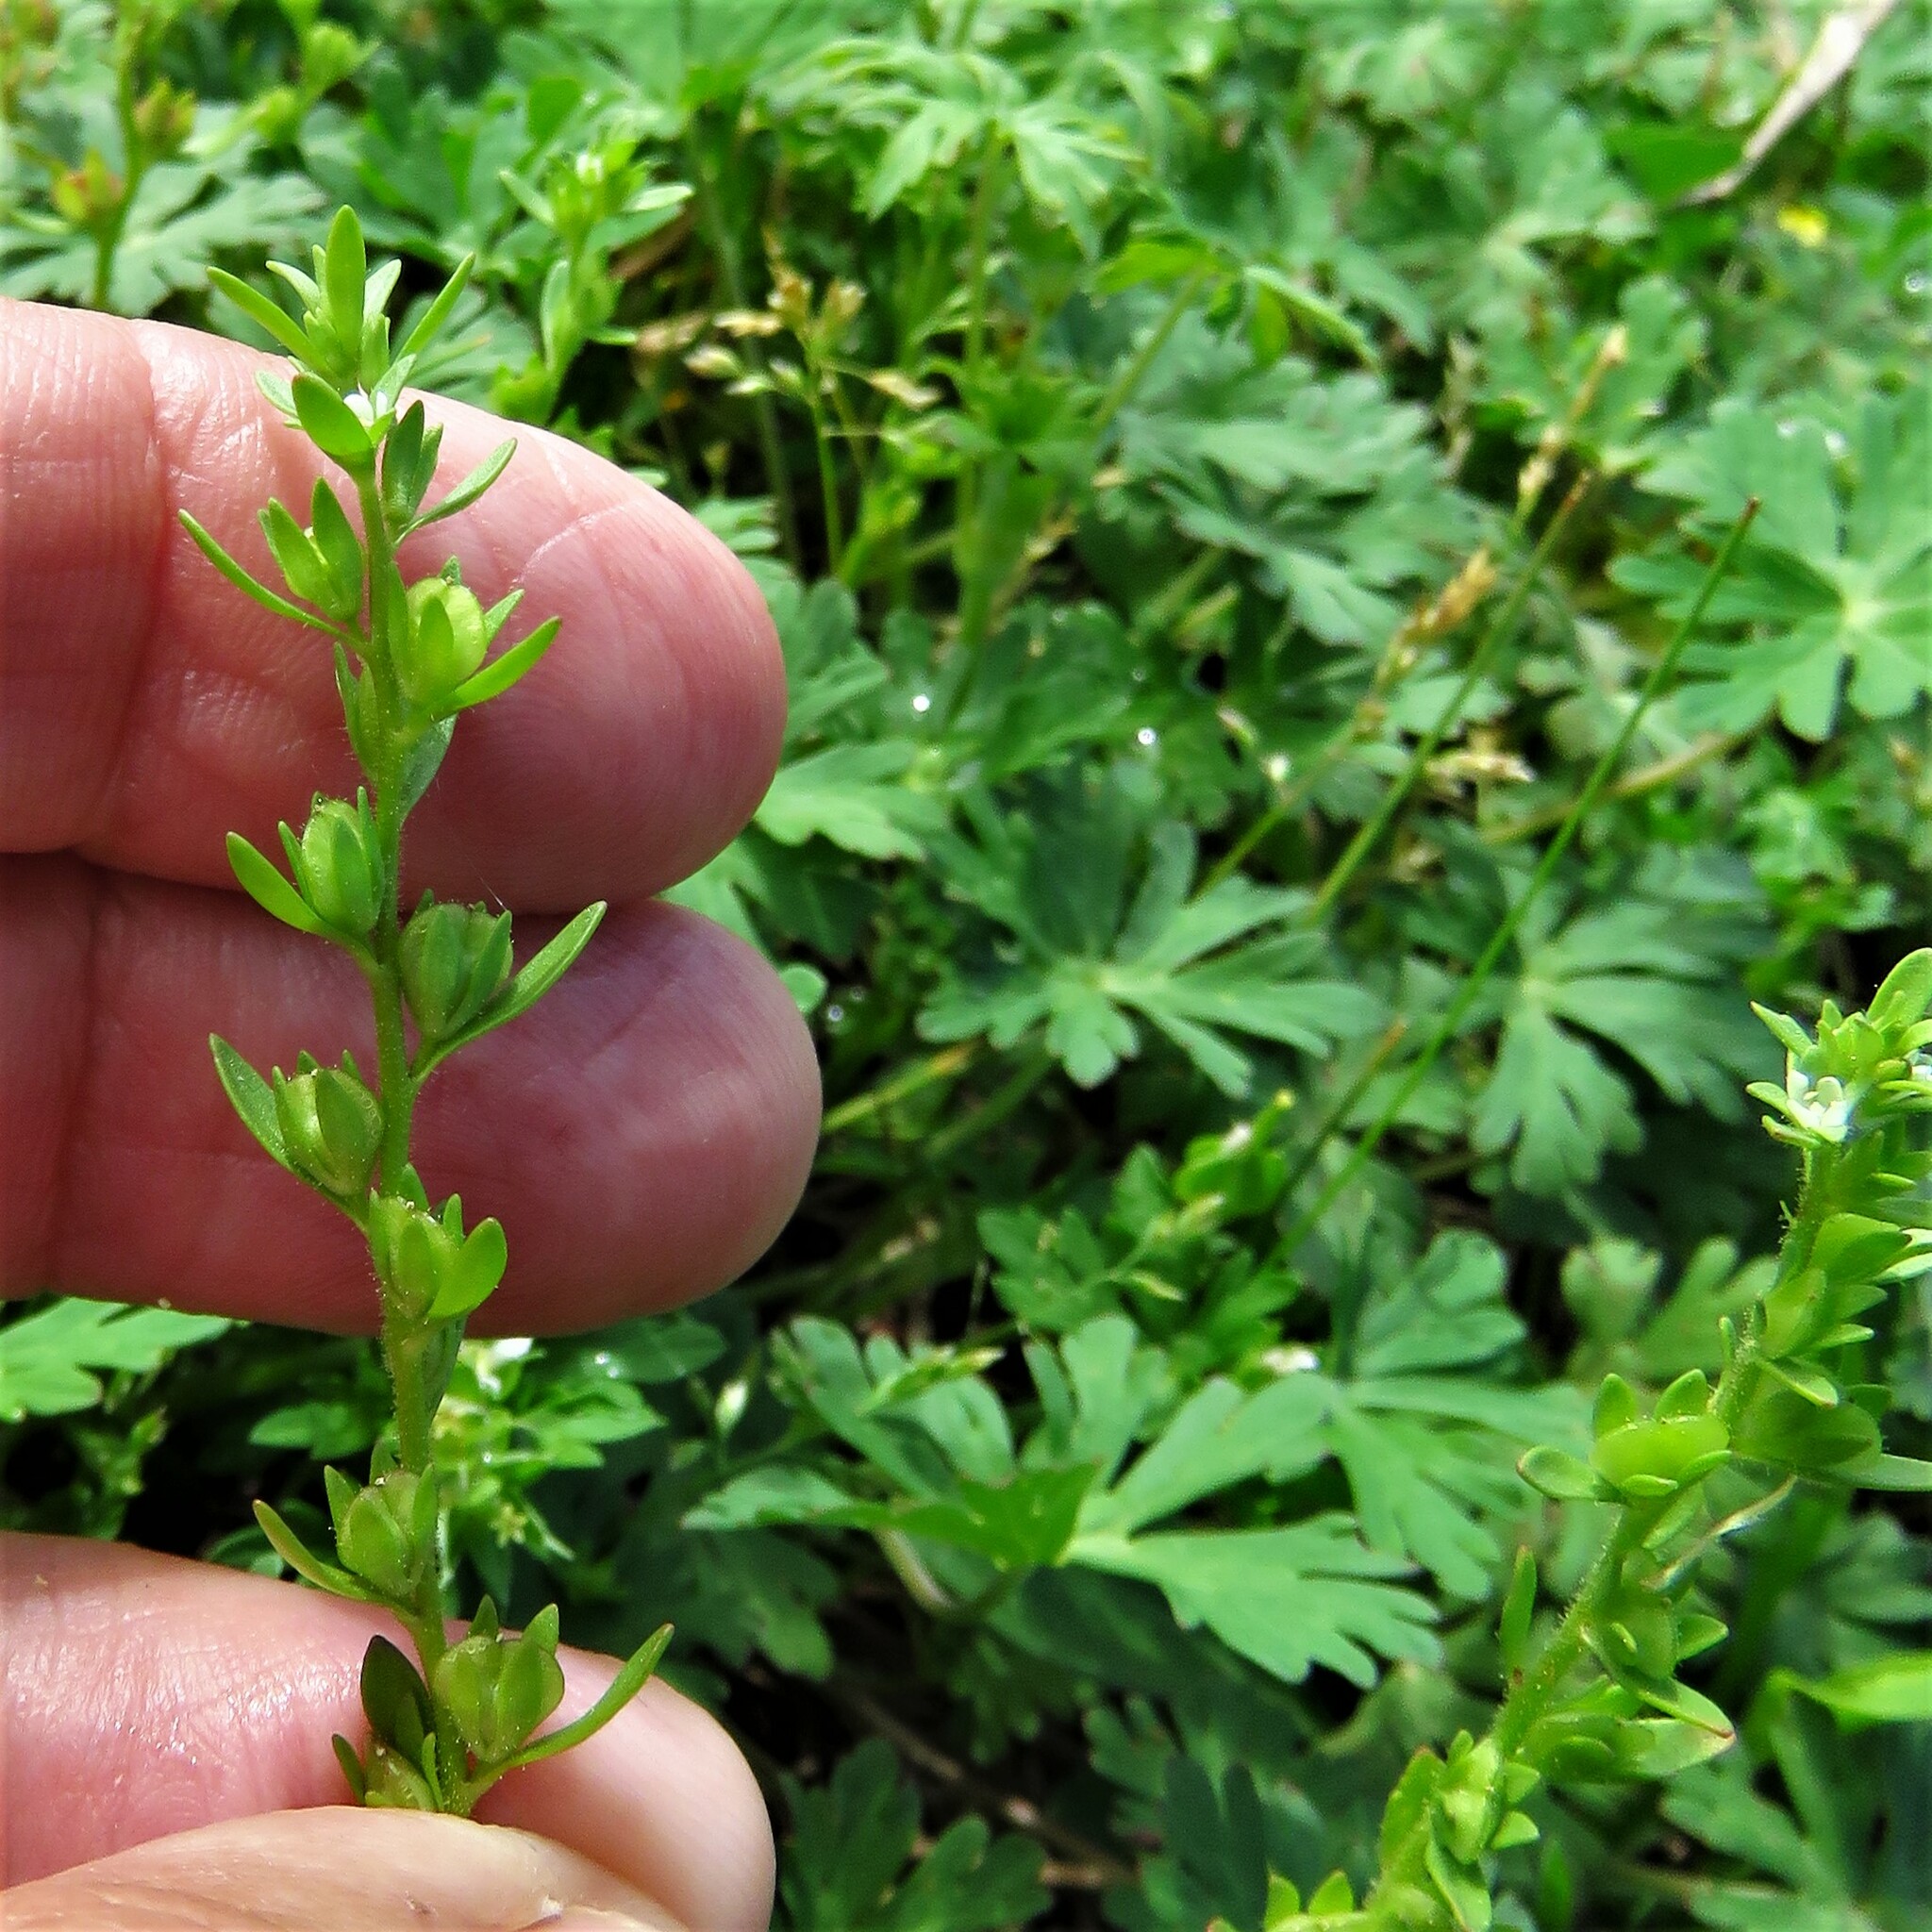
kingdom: Plantae
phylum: Tracheophyta
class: Magnoliopsida
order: Lamiales
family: Plantaginaceae
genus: Veronica
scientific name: Veronica peregrina
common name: Neckweed
